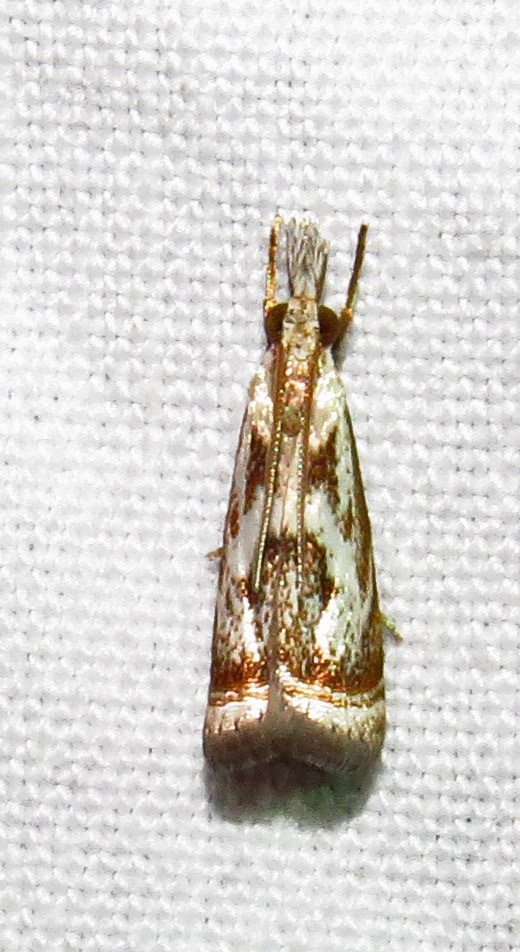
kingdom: Animalia
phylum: Arthropoda
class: Insecta
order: Lepidoptera
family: Crambidae
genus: Microcrambus
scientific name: Microcrambus elegans
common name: Elegant grass-veneer
